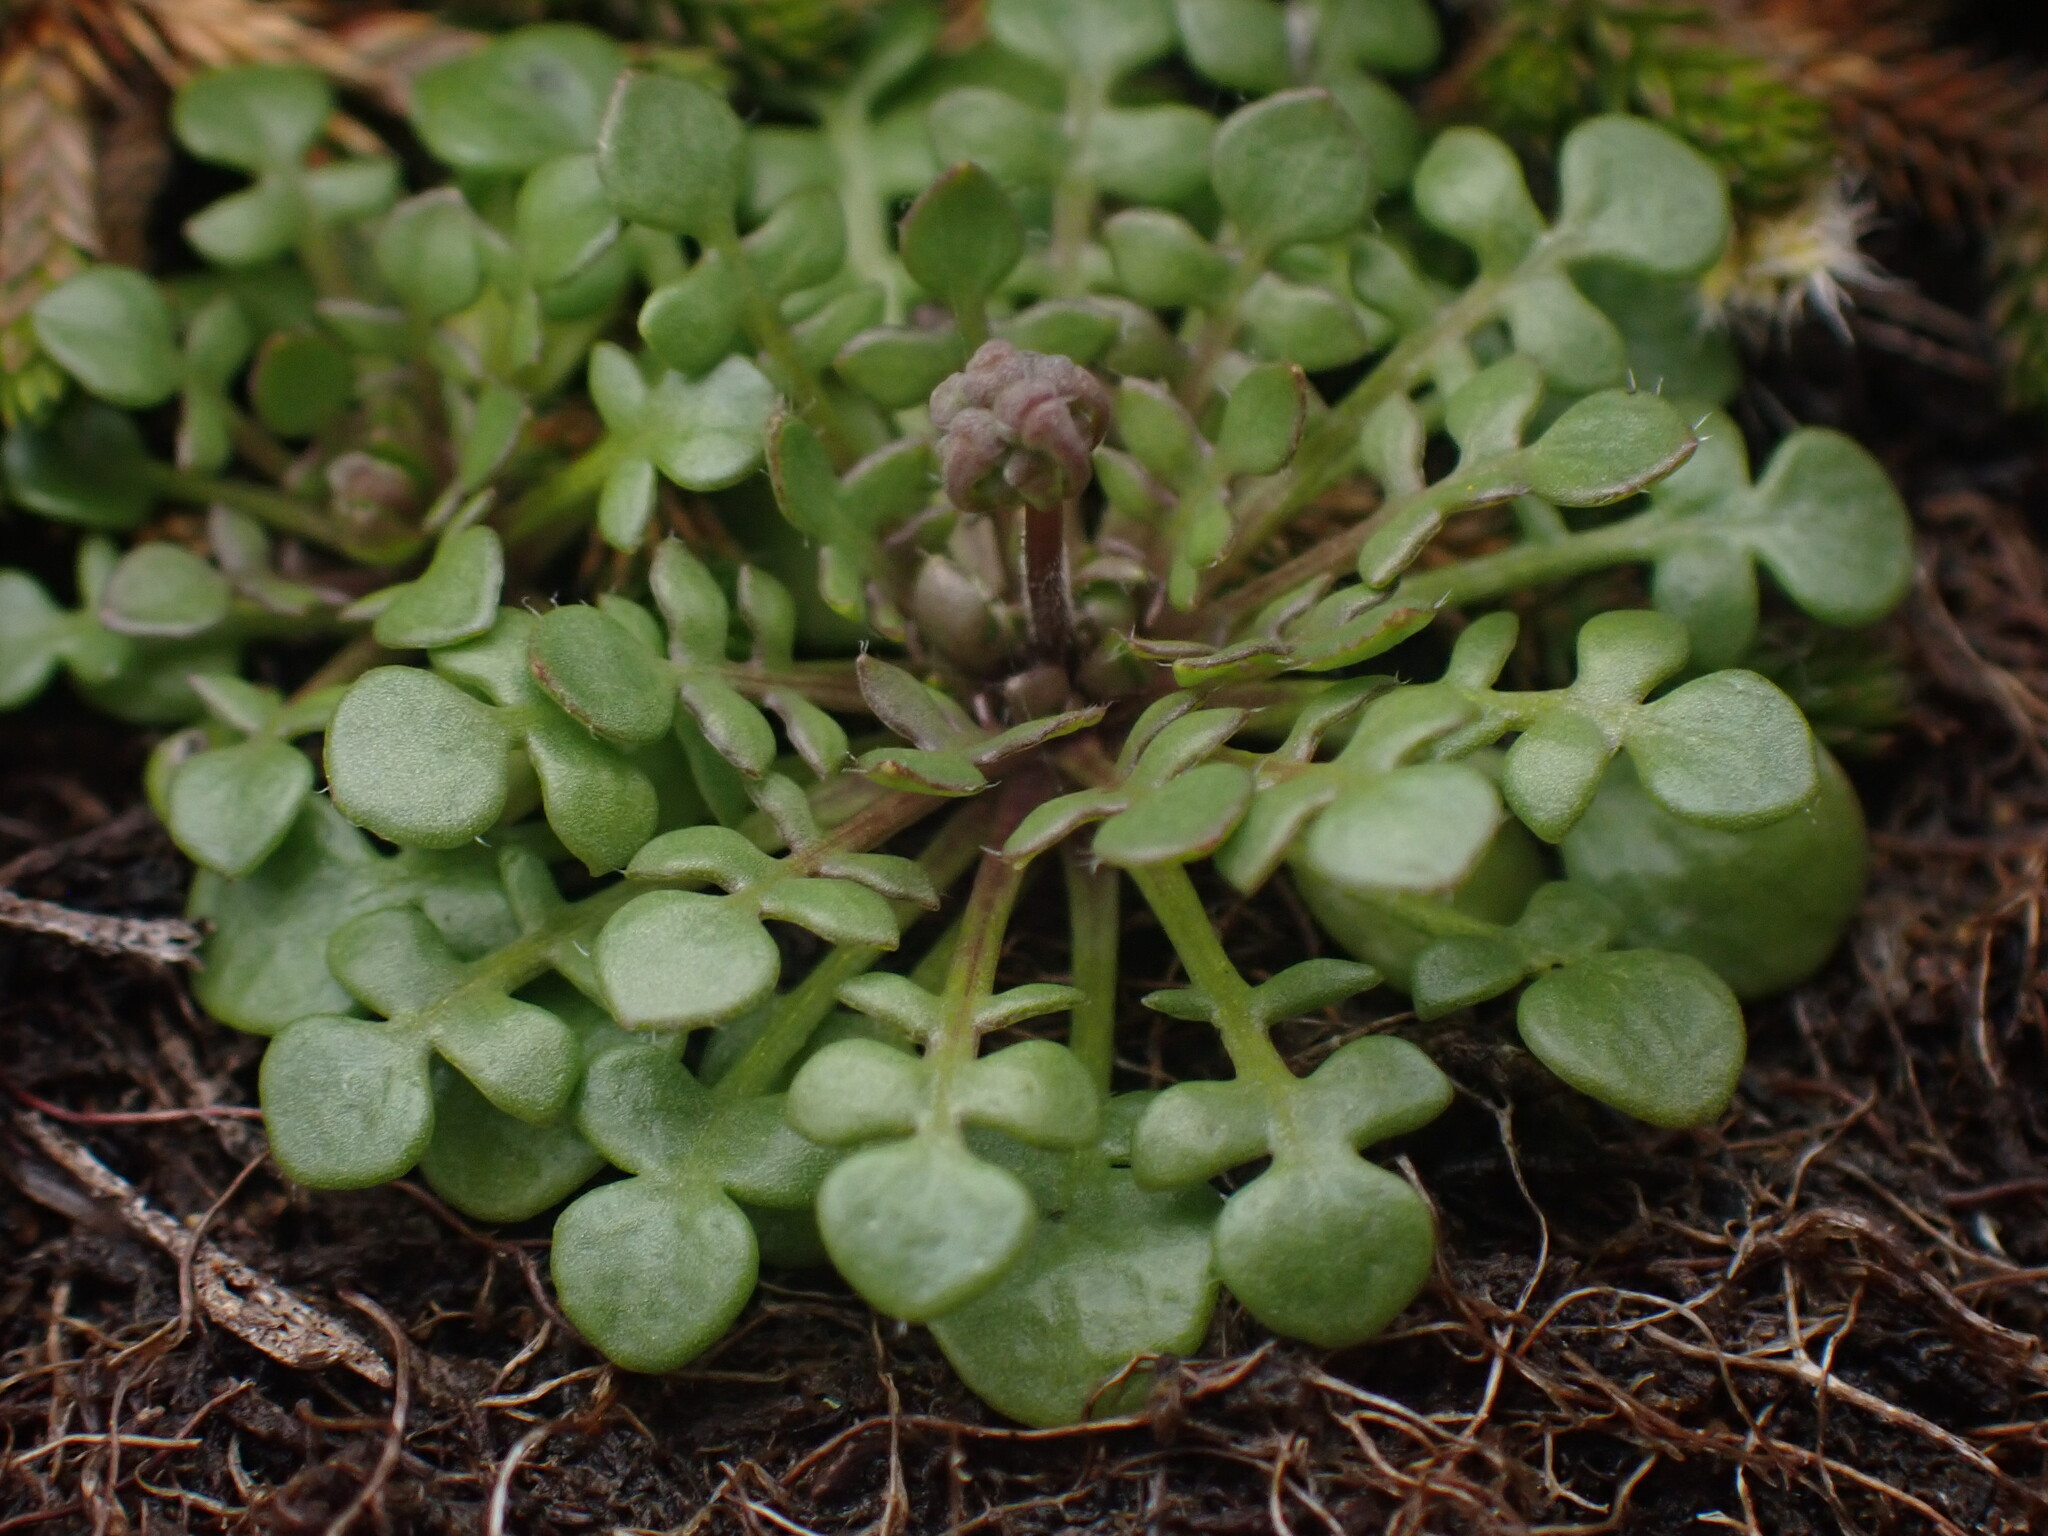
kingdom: Plantae
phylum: Tracheophyta
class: Magnoliopsida
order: Brassicales
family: Brassicaceae
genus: Teesdalia
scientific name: Teesdalia nudicaulis
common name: Shepherd's cress
